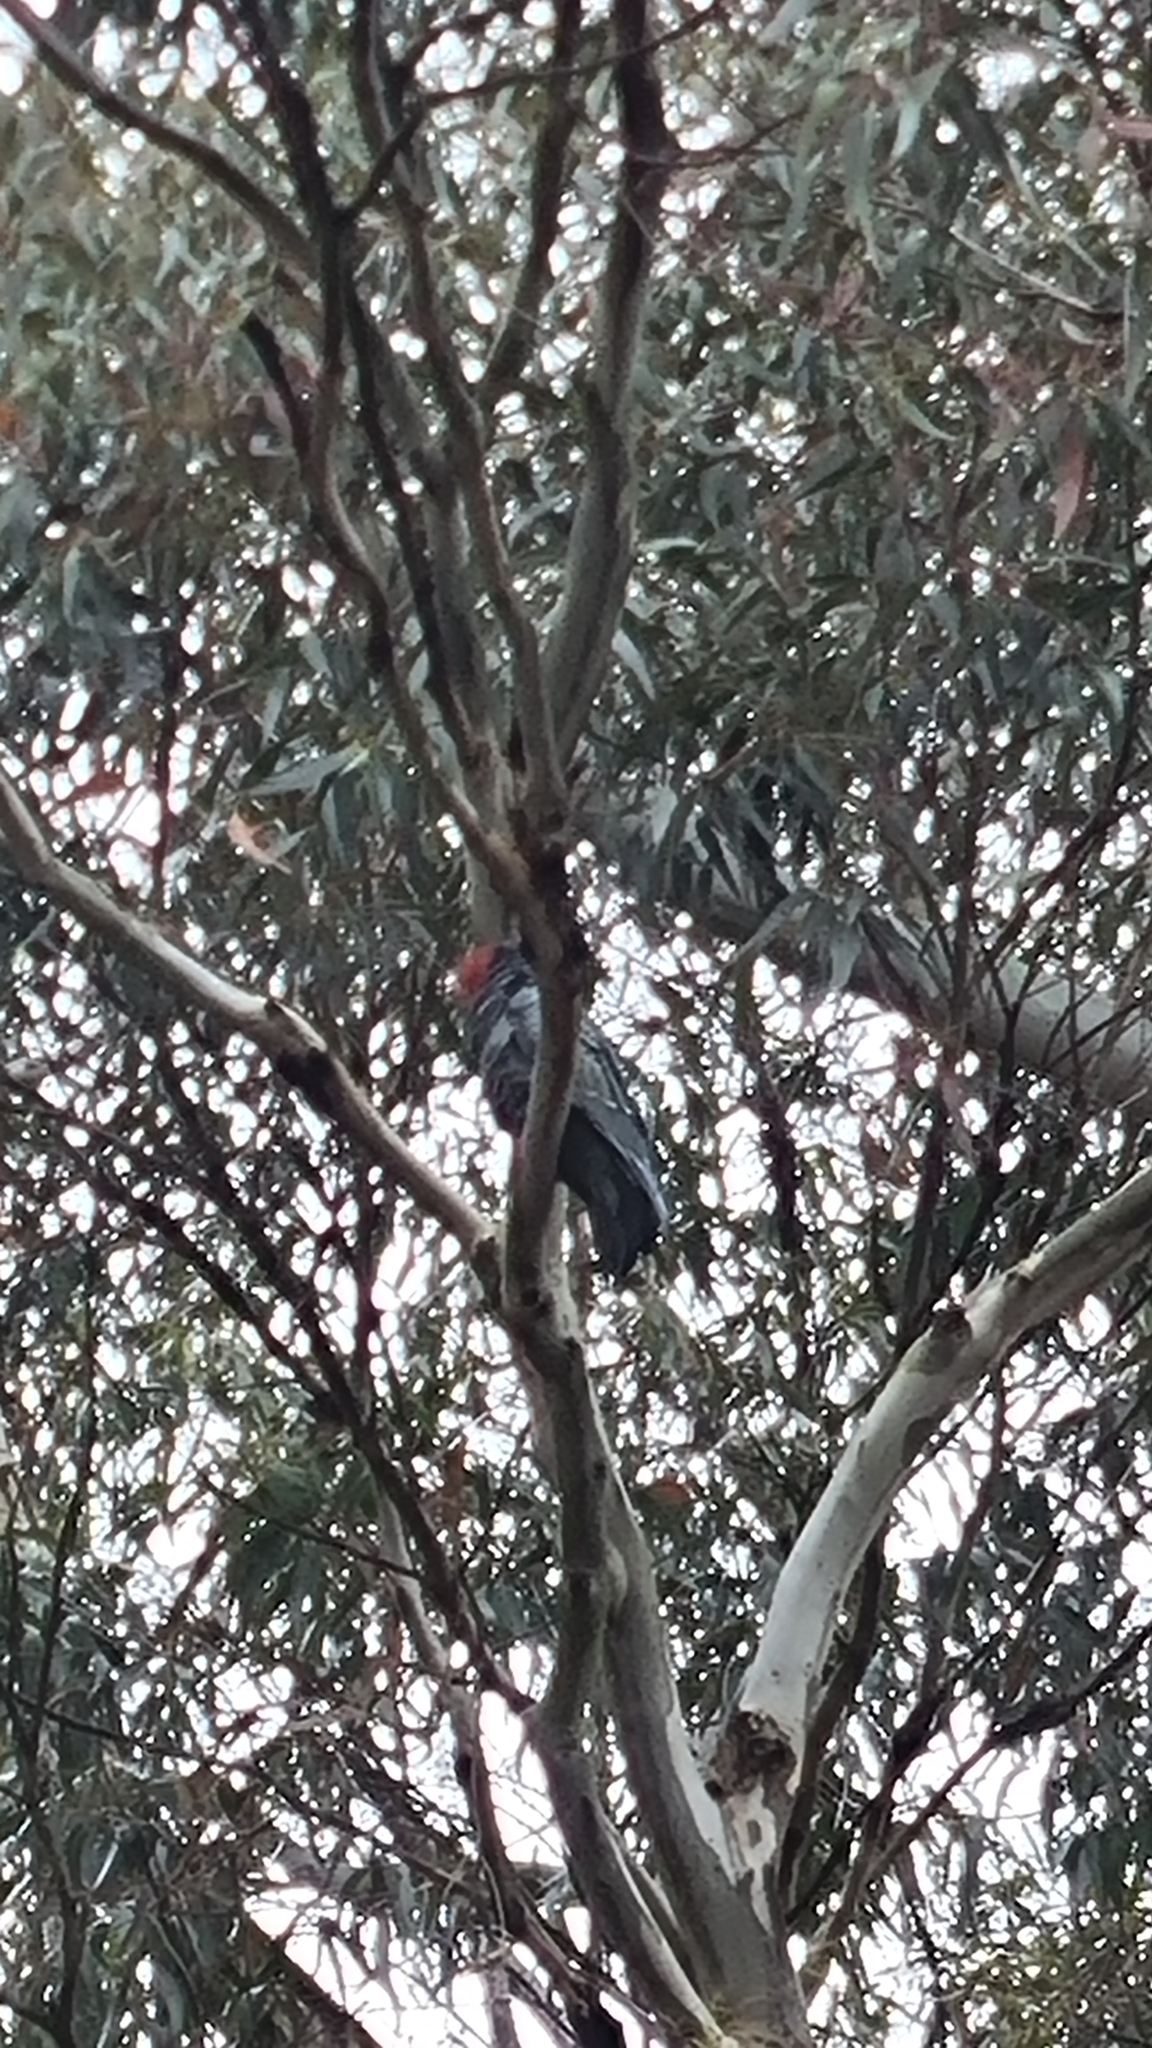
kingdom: Animalia
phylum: Chordata
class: Aves
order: Psittaciformes
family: Psittacidae
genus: Callocephalon
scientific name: Callocephalon fimbriatum
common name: Gang-gang cockatoo
